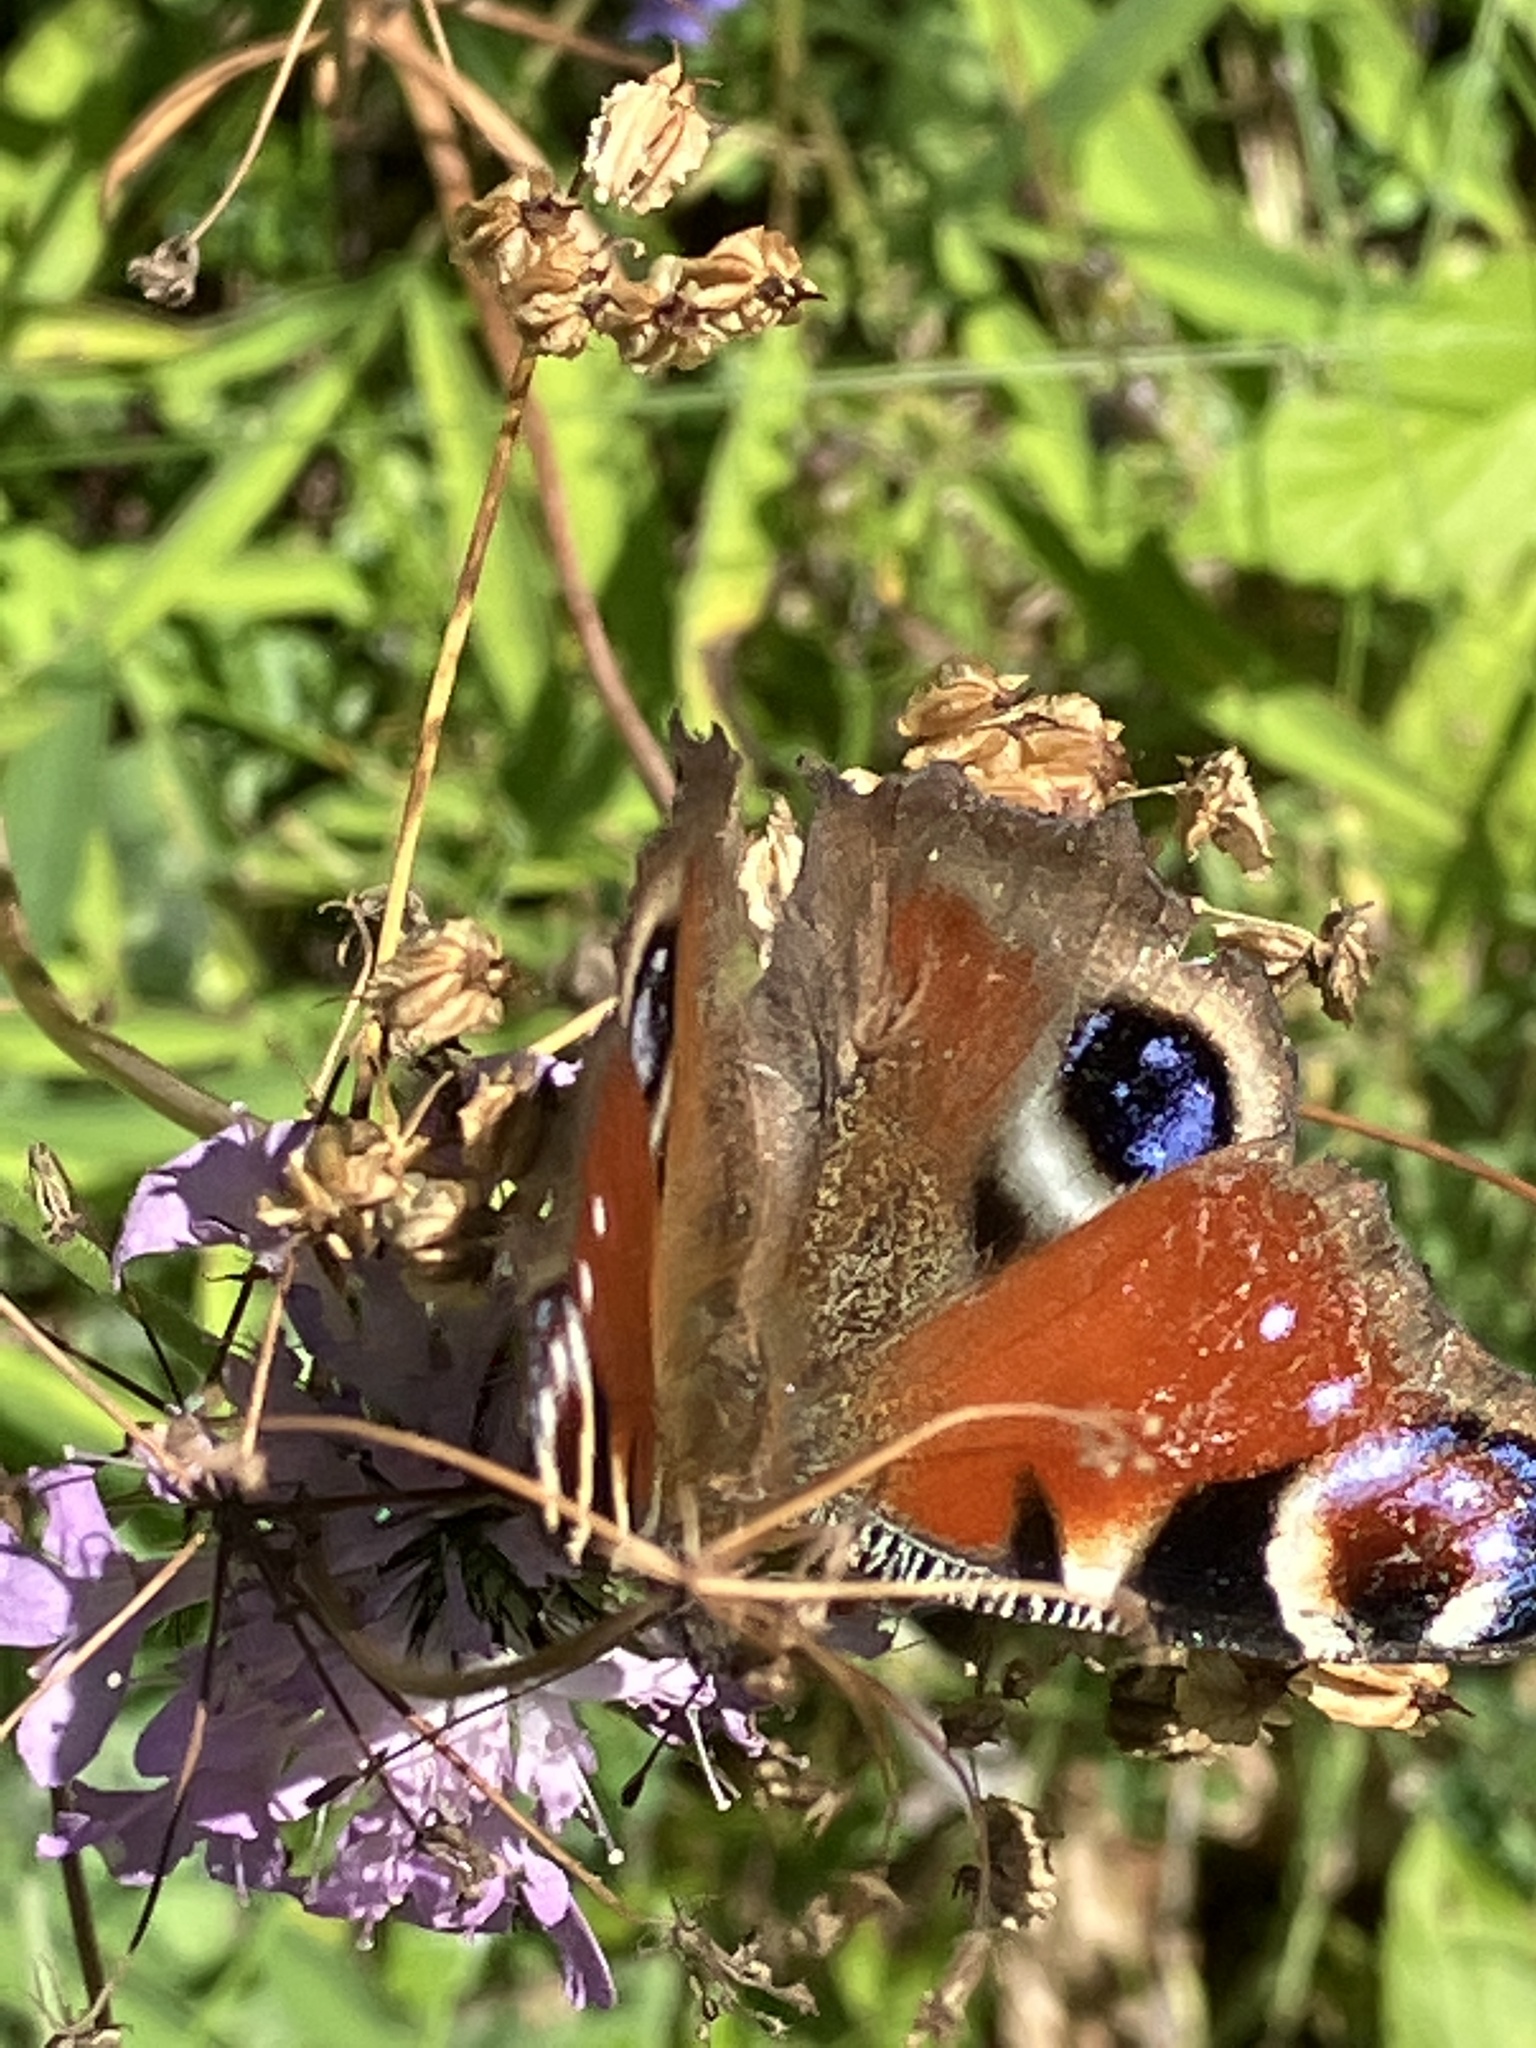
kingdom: Animalia
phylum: Arthropoda
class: Insecta
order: Lepidoptera
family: Nymphalidae
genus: Aglais
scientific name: Aglais io
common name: Peacock
